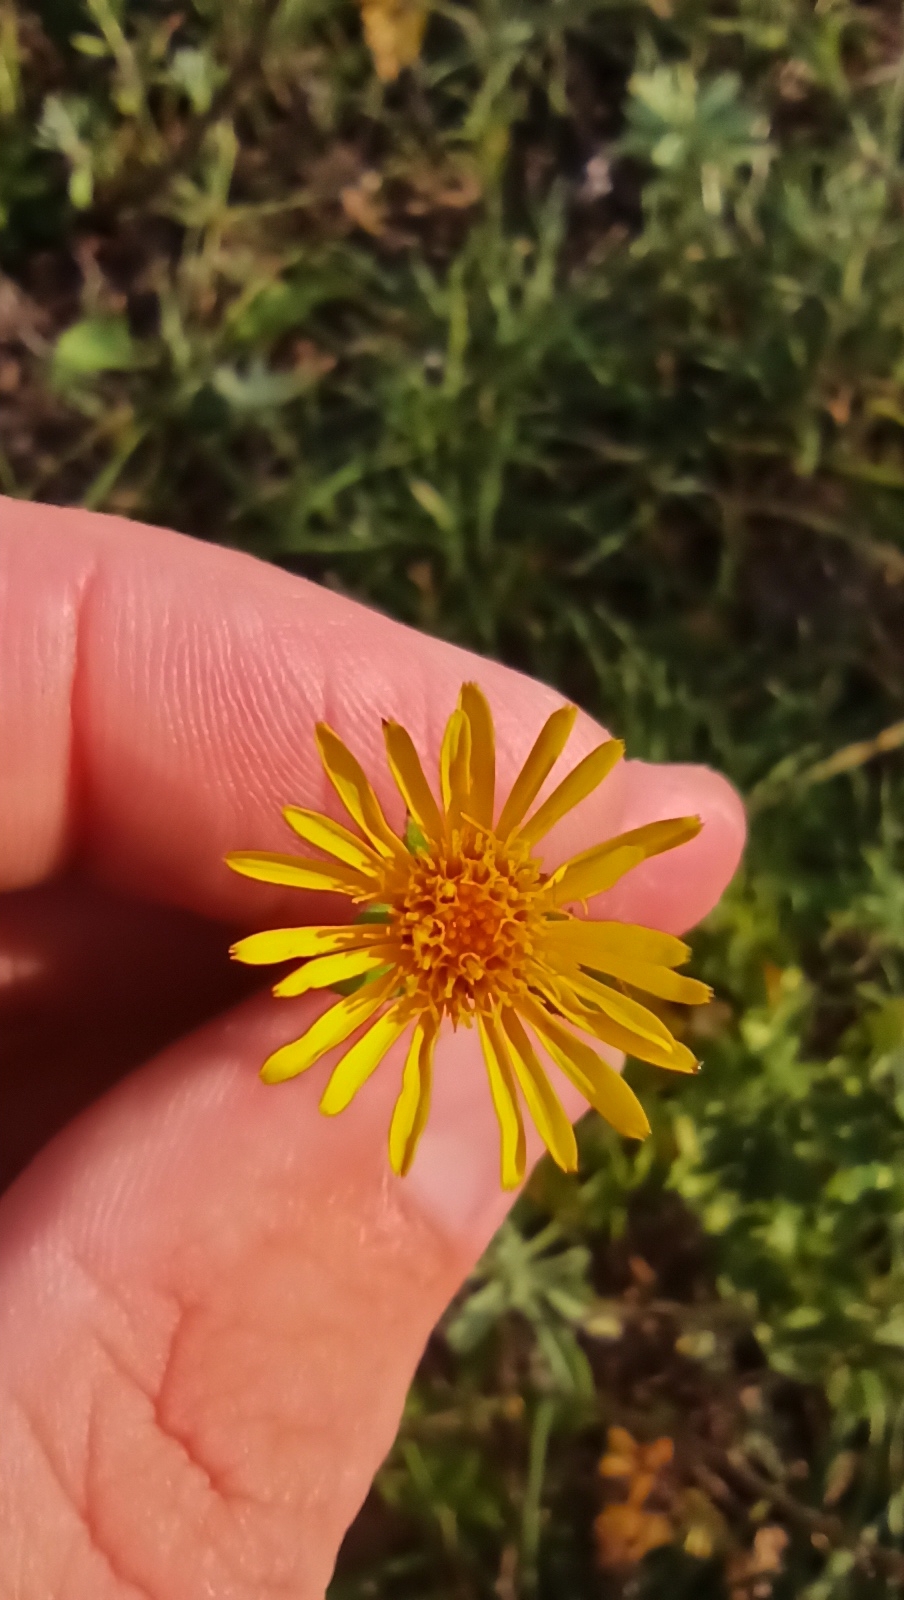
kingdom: Plantae
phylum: Tracheophyta
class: Magnoliopsida
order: Asterales
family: Asteraceae
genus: Pentanema
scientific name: Pentanema salicinum
